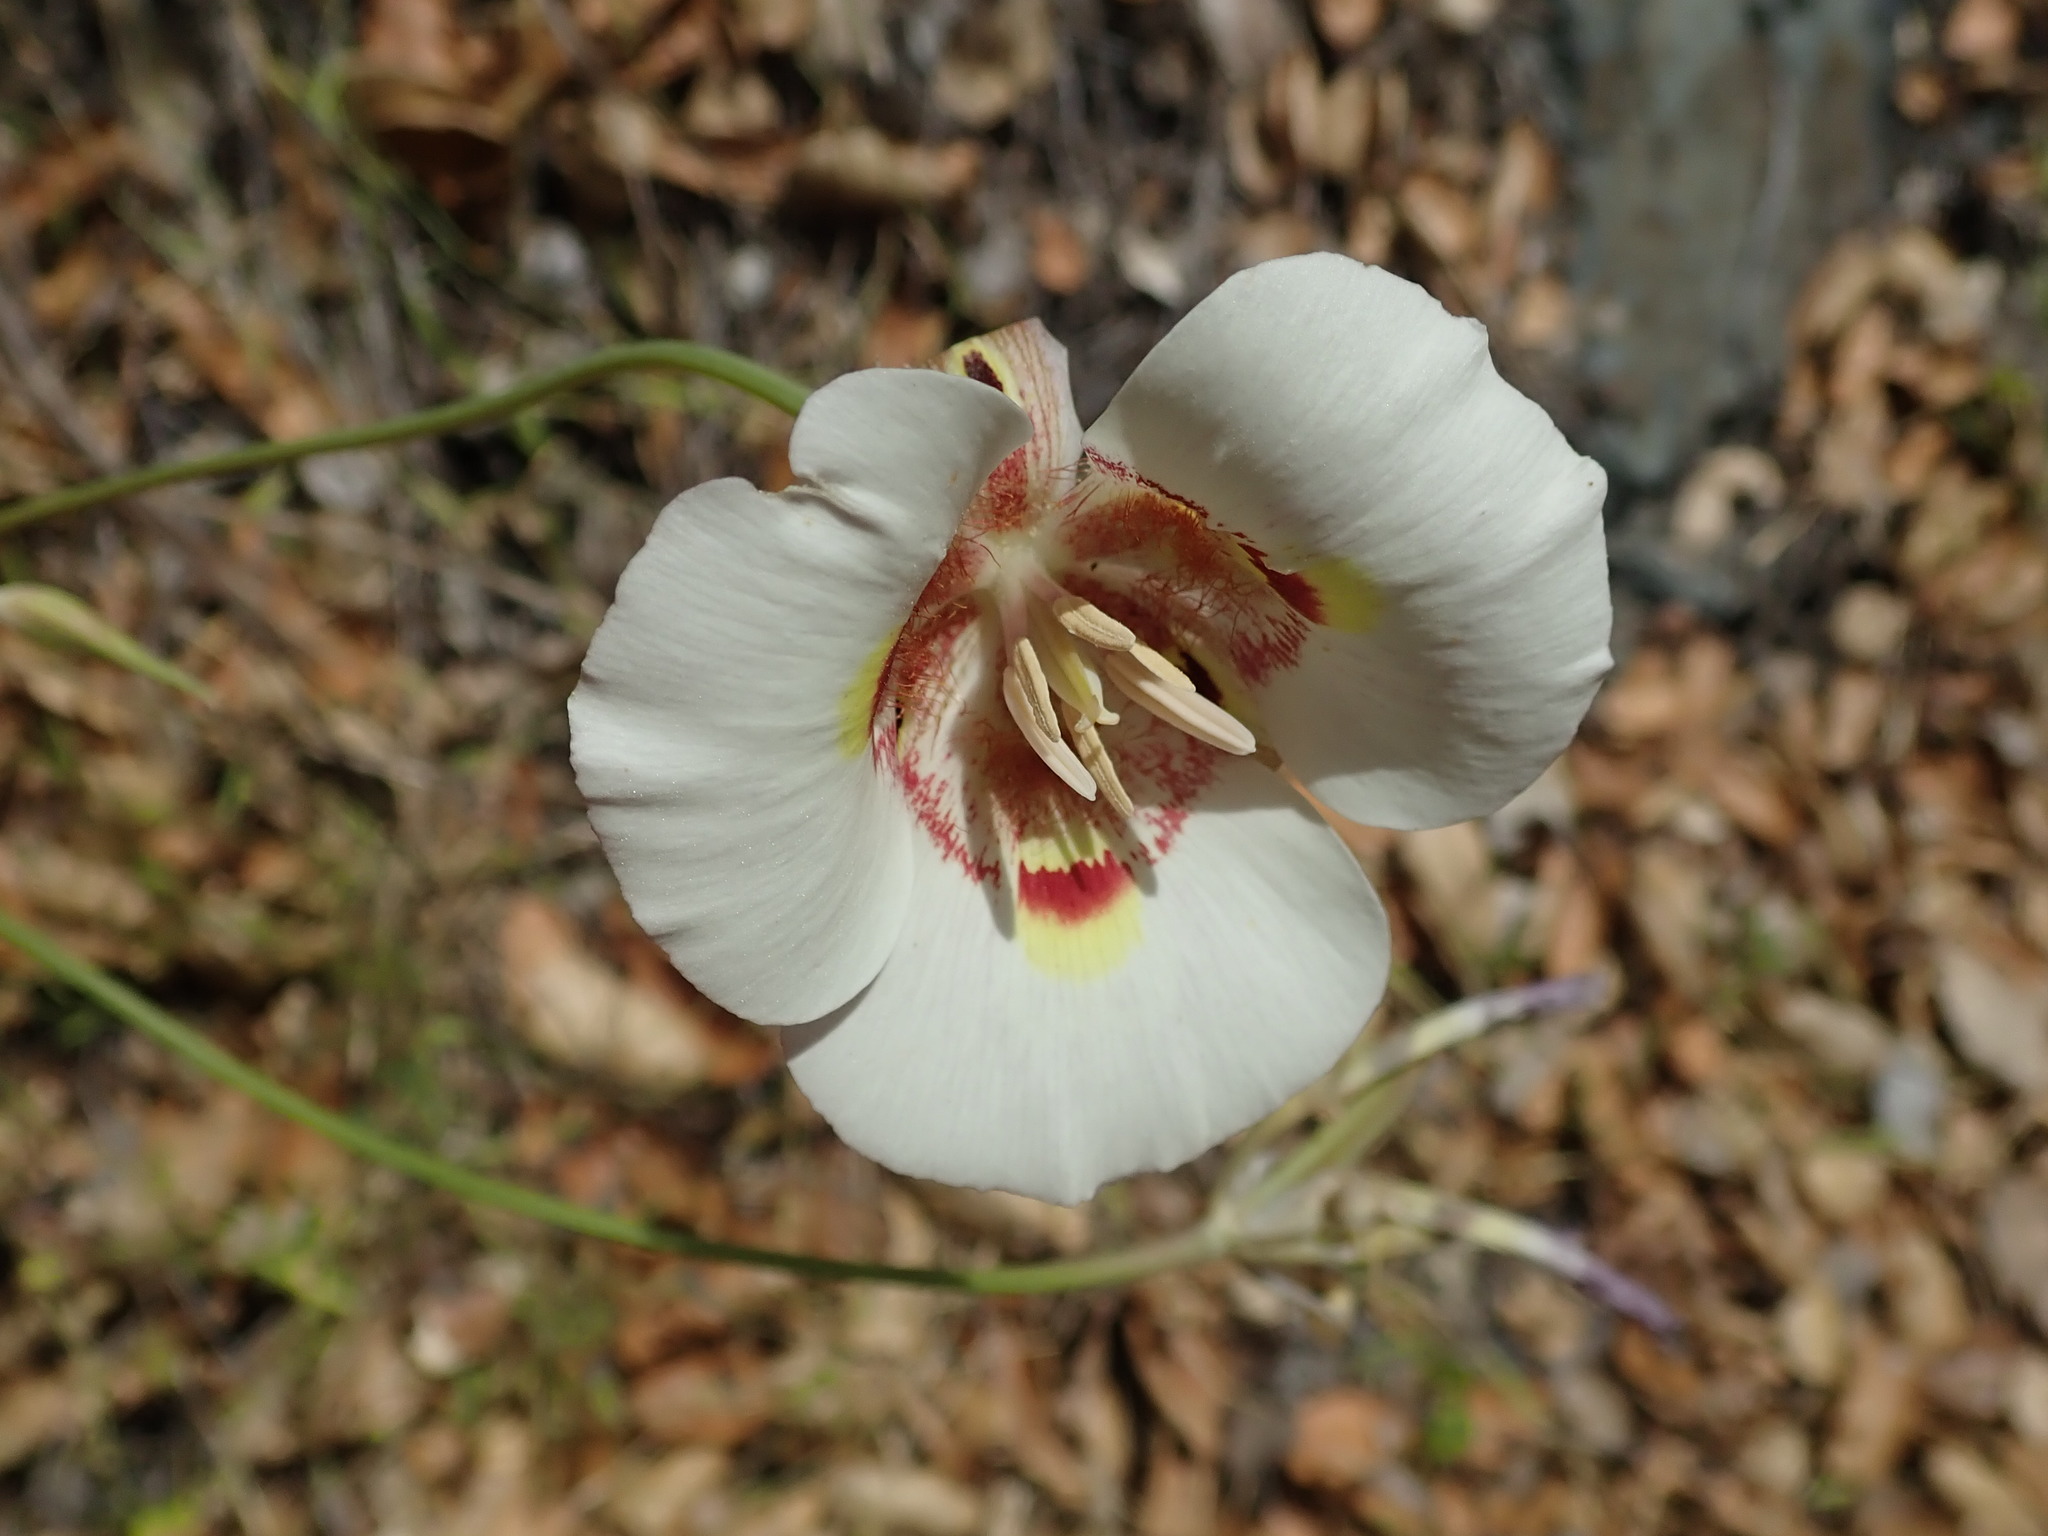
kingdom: Plantae
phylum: Tracheophyta
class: Liliopsida
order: Liliales
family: Liliaceae
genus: Calochortus
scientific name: Calochortus argillosus
